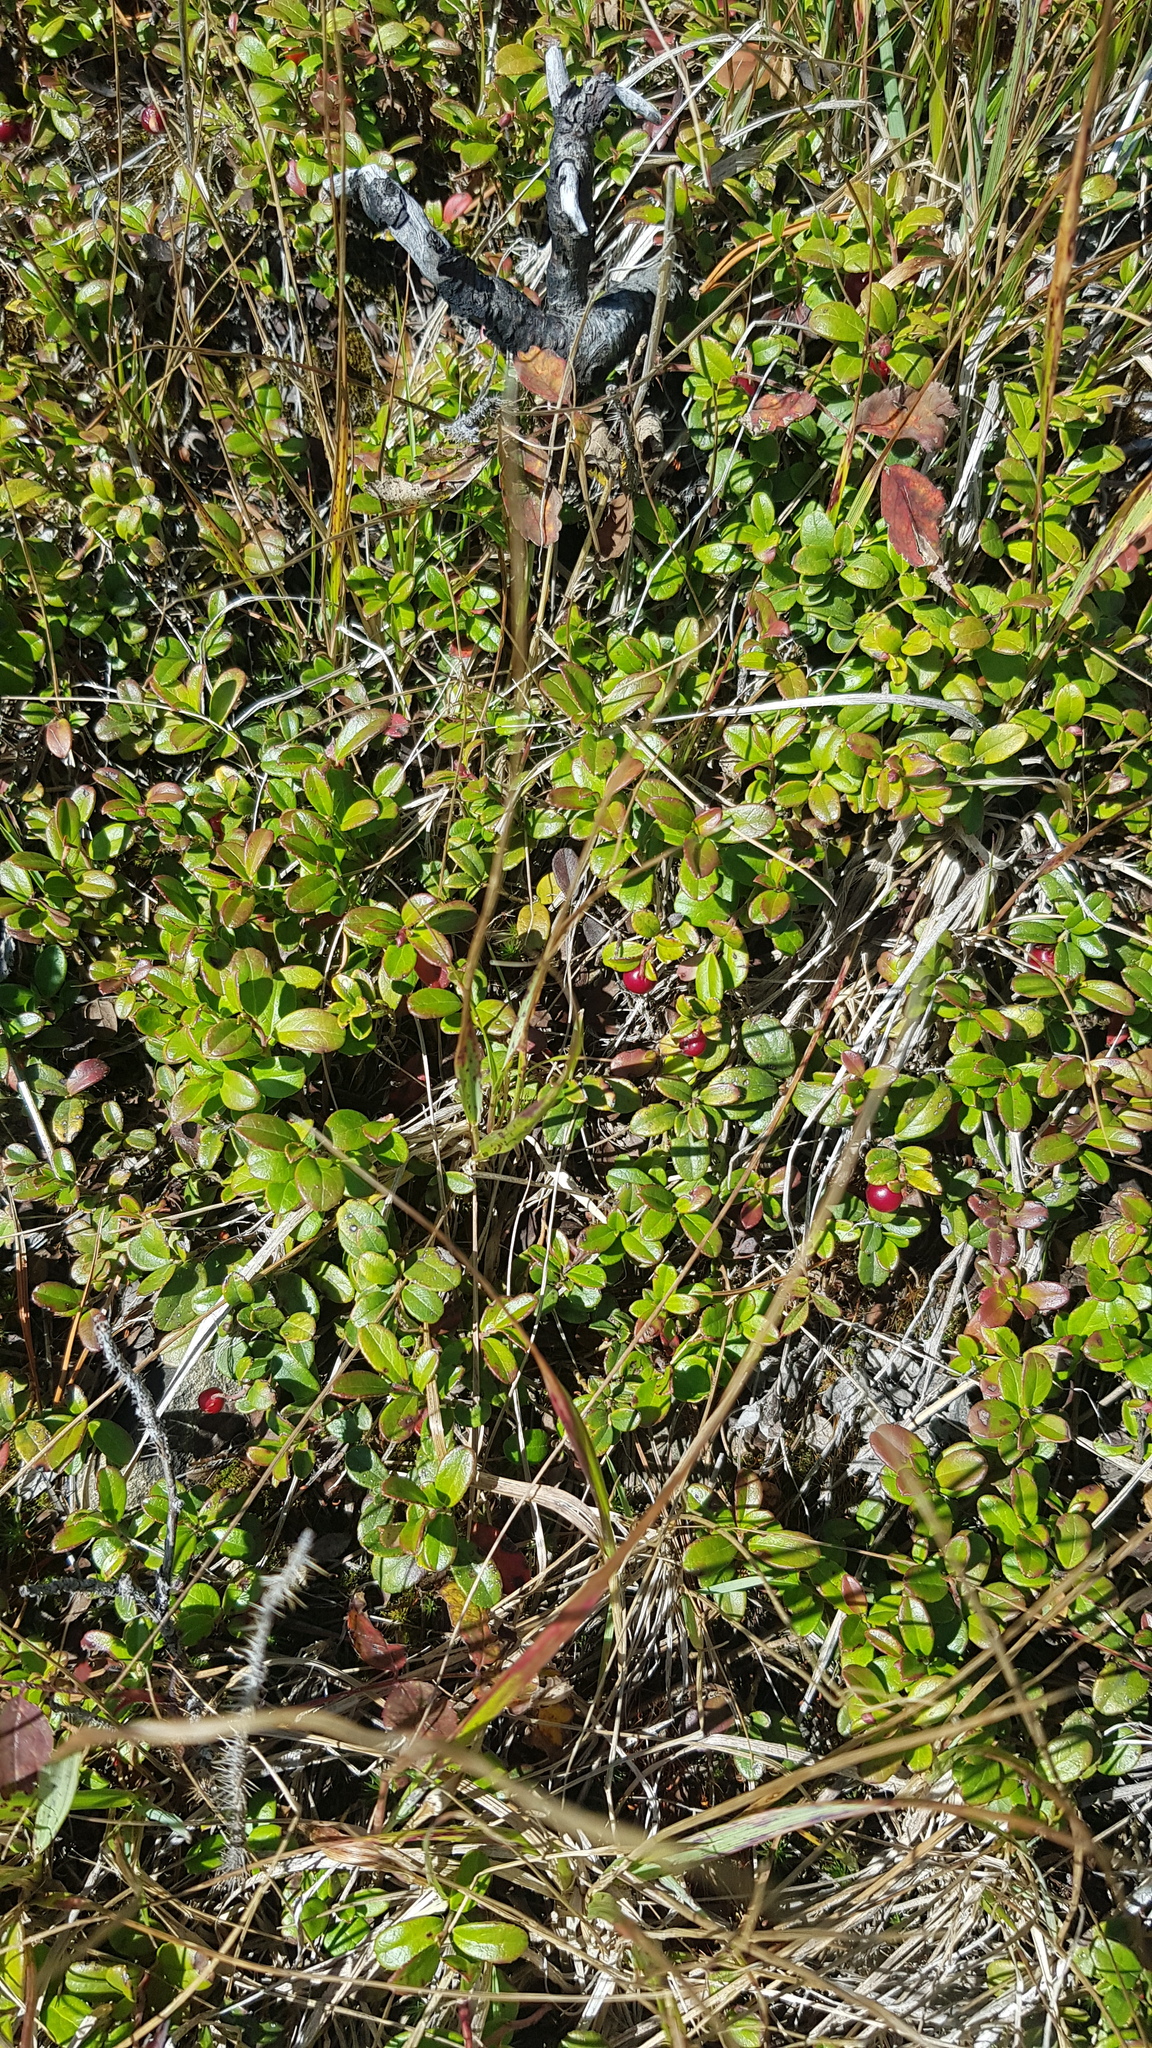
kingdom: Plantae
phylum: Tracheophyta
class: Magnoliopsida
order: Ericales
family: Ericaceae
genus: Vaccinium
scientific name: Vaccinium vitis-idaea
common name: Cowberry
